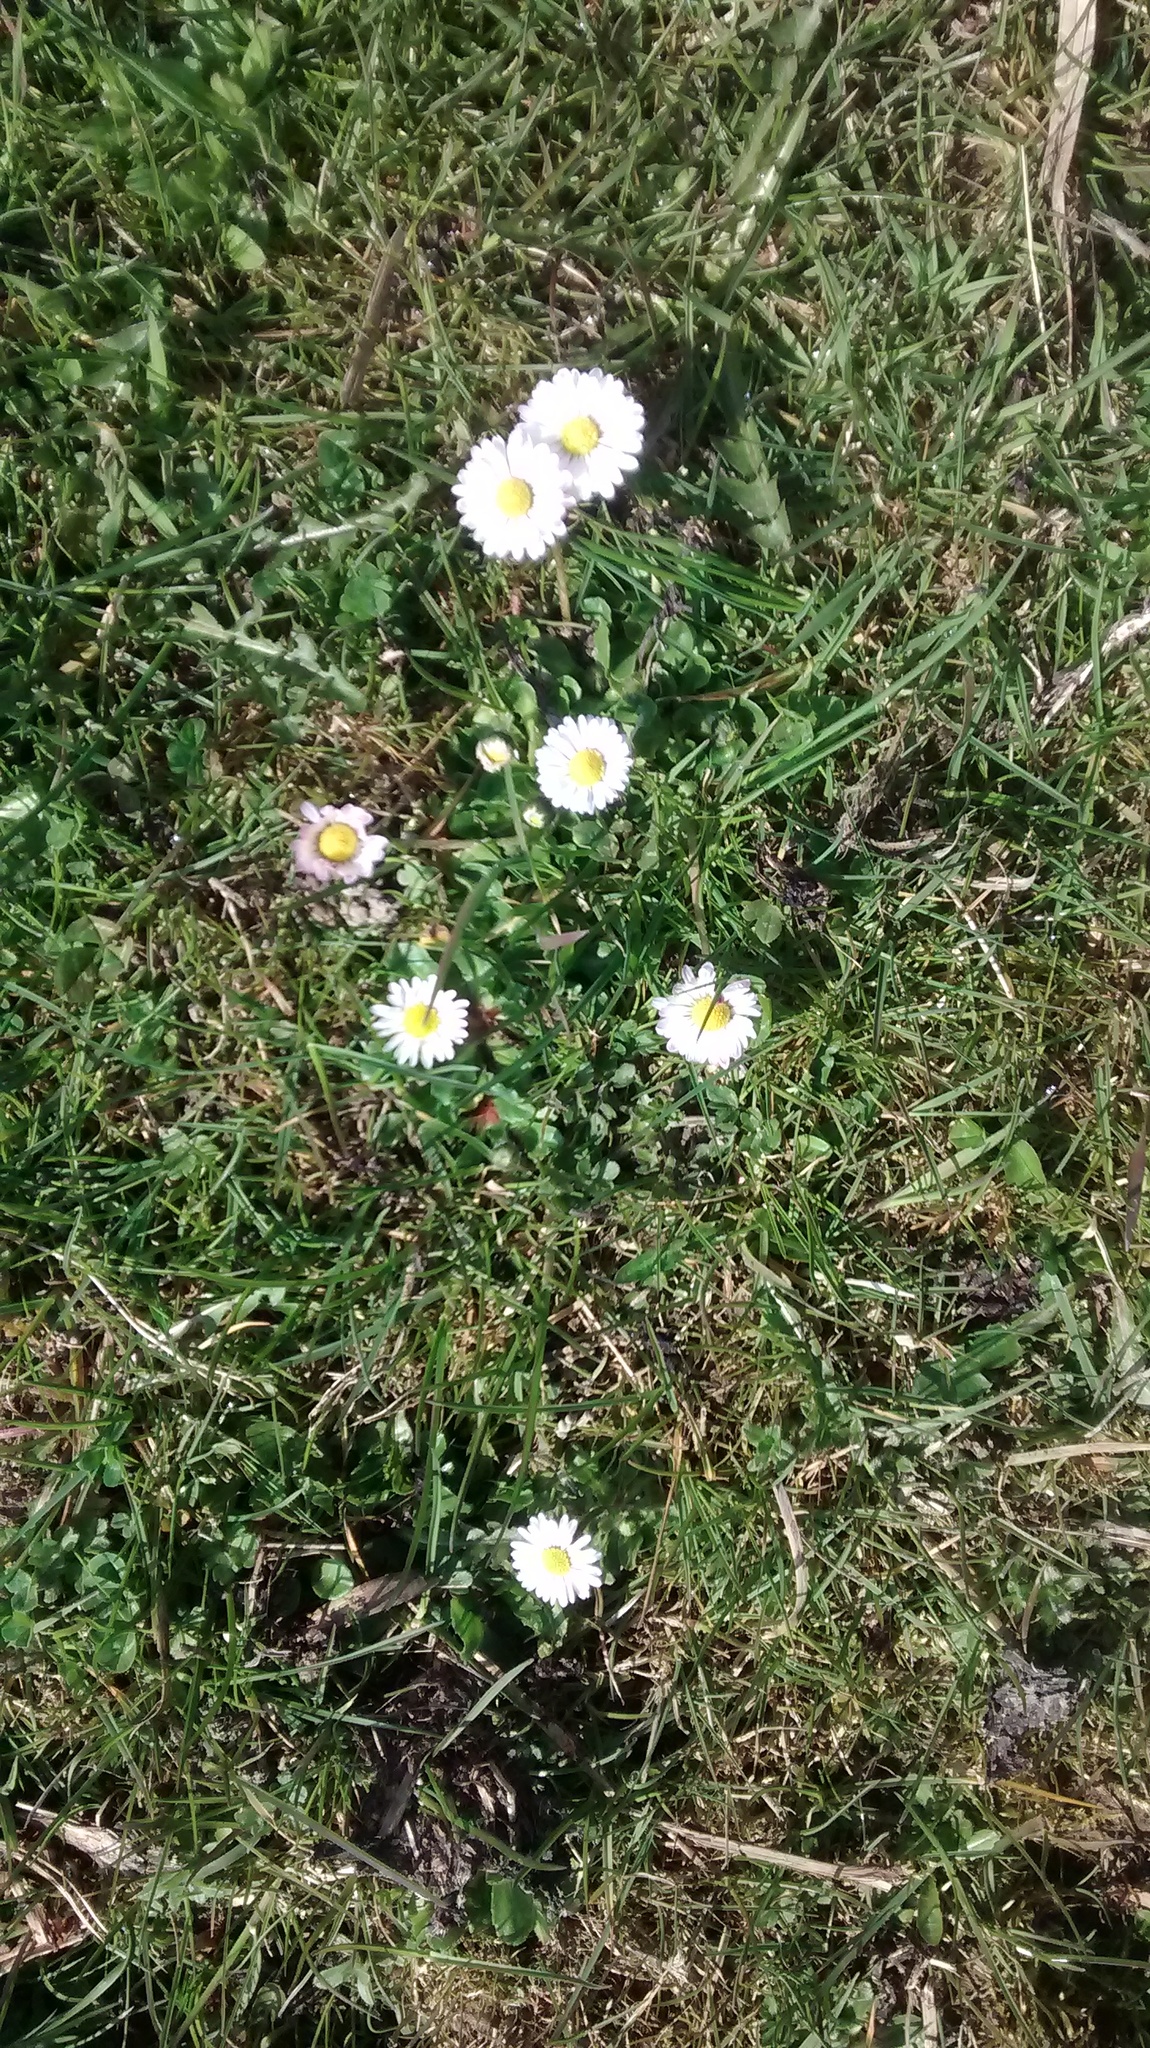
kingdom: Plantae
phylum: Tracheophyta
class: Magnoliopsida
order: Asterales
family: Asteraceae
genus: Bellis
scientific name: Bellis perennis
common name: Lawndaisy
